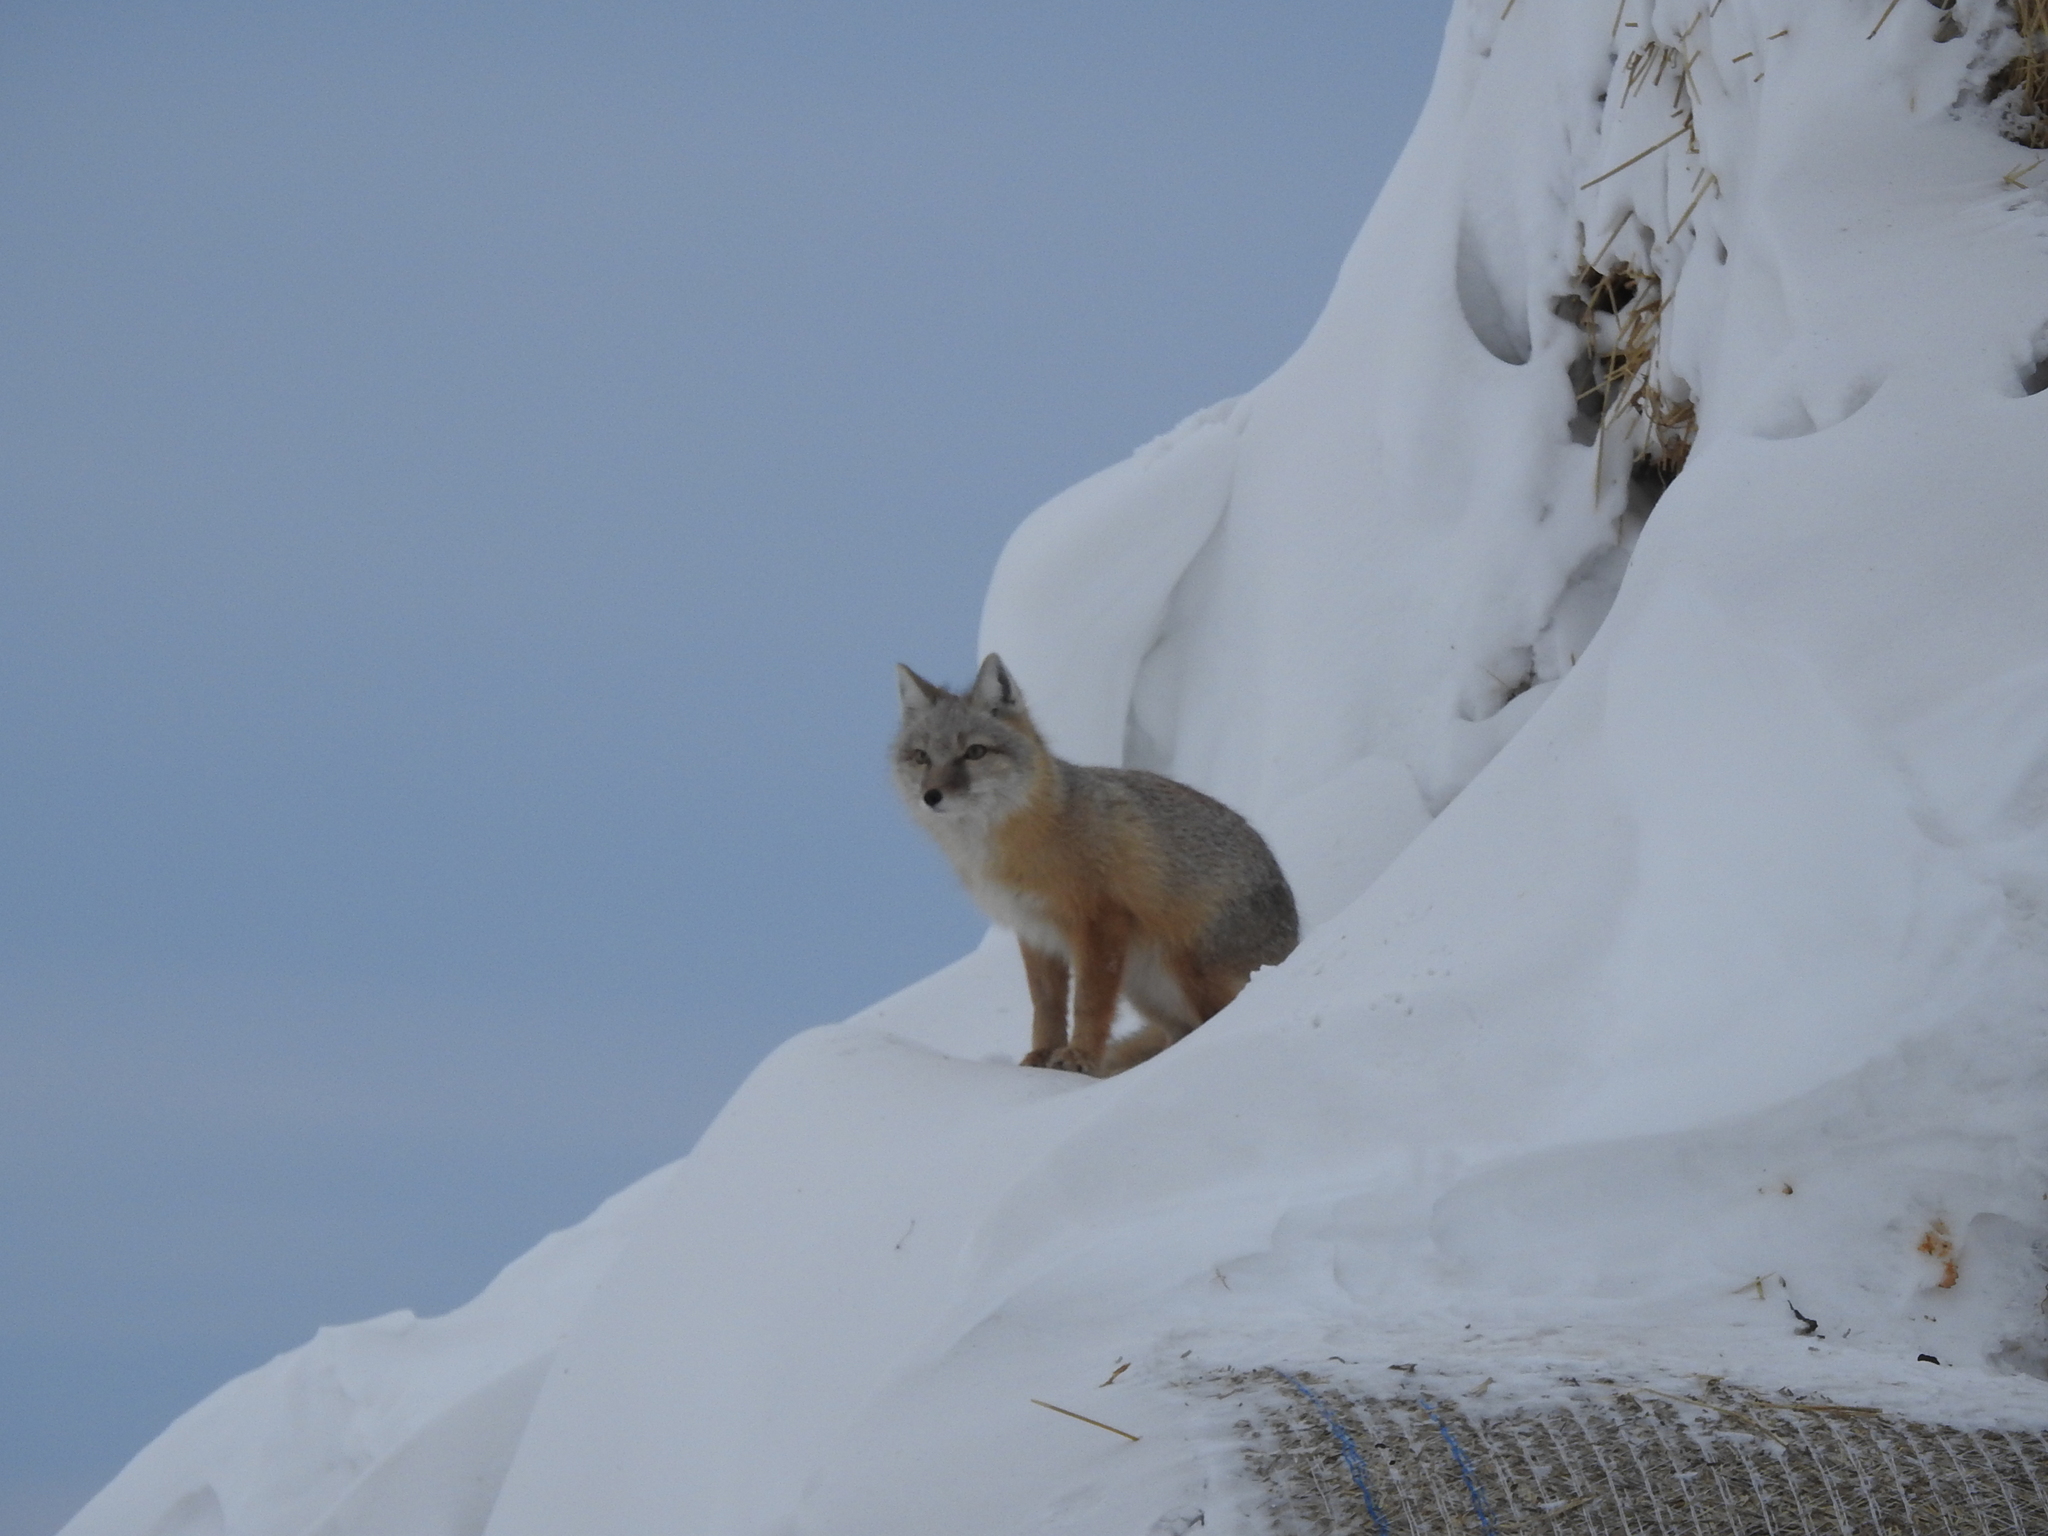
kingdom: Animalia
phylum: Chordata
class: Mammalia
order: Carnivora
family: Canidae
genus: Vulpes
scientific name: Vulpes corsac
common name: Corsac fox
